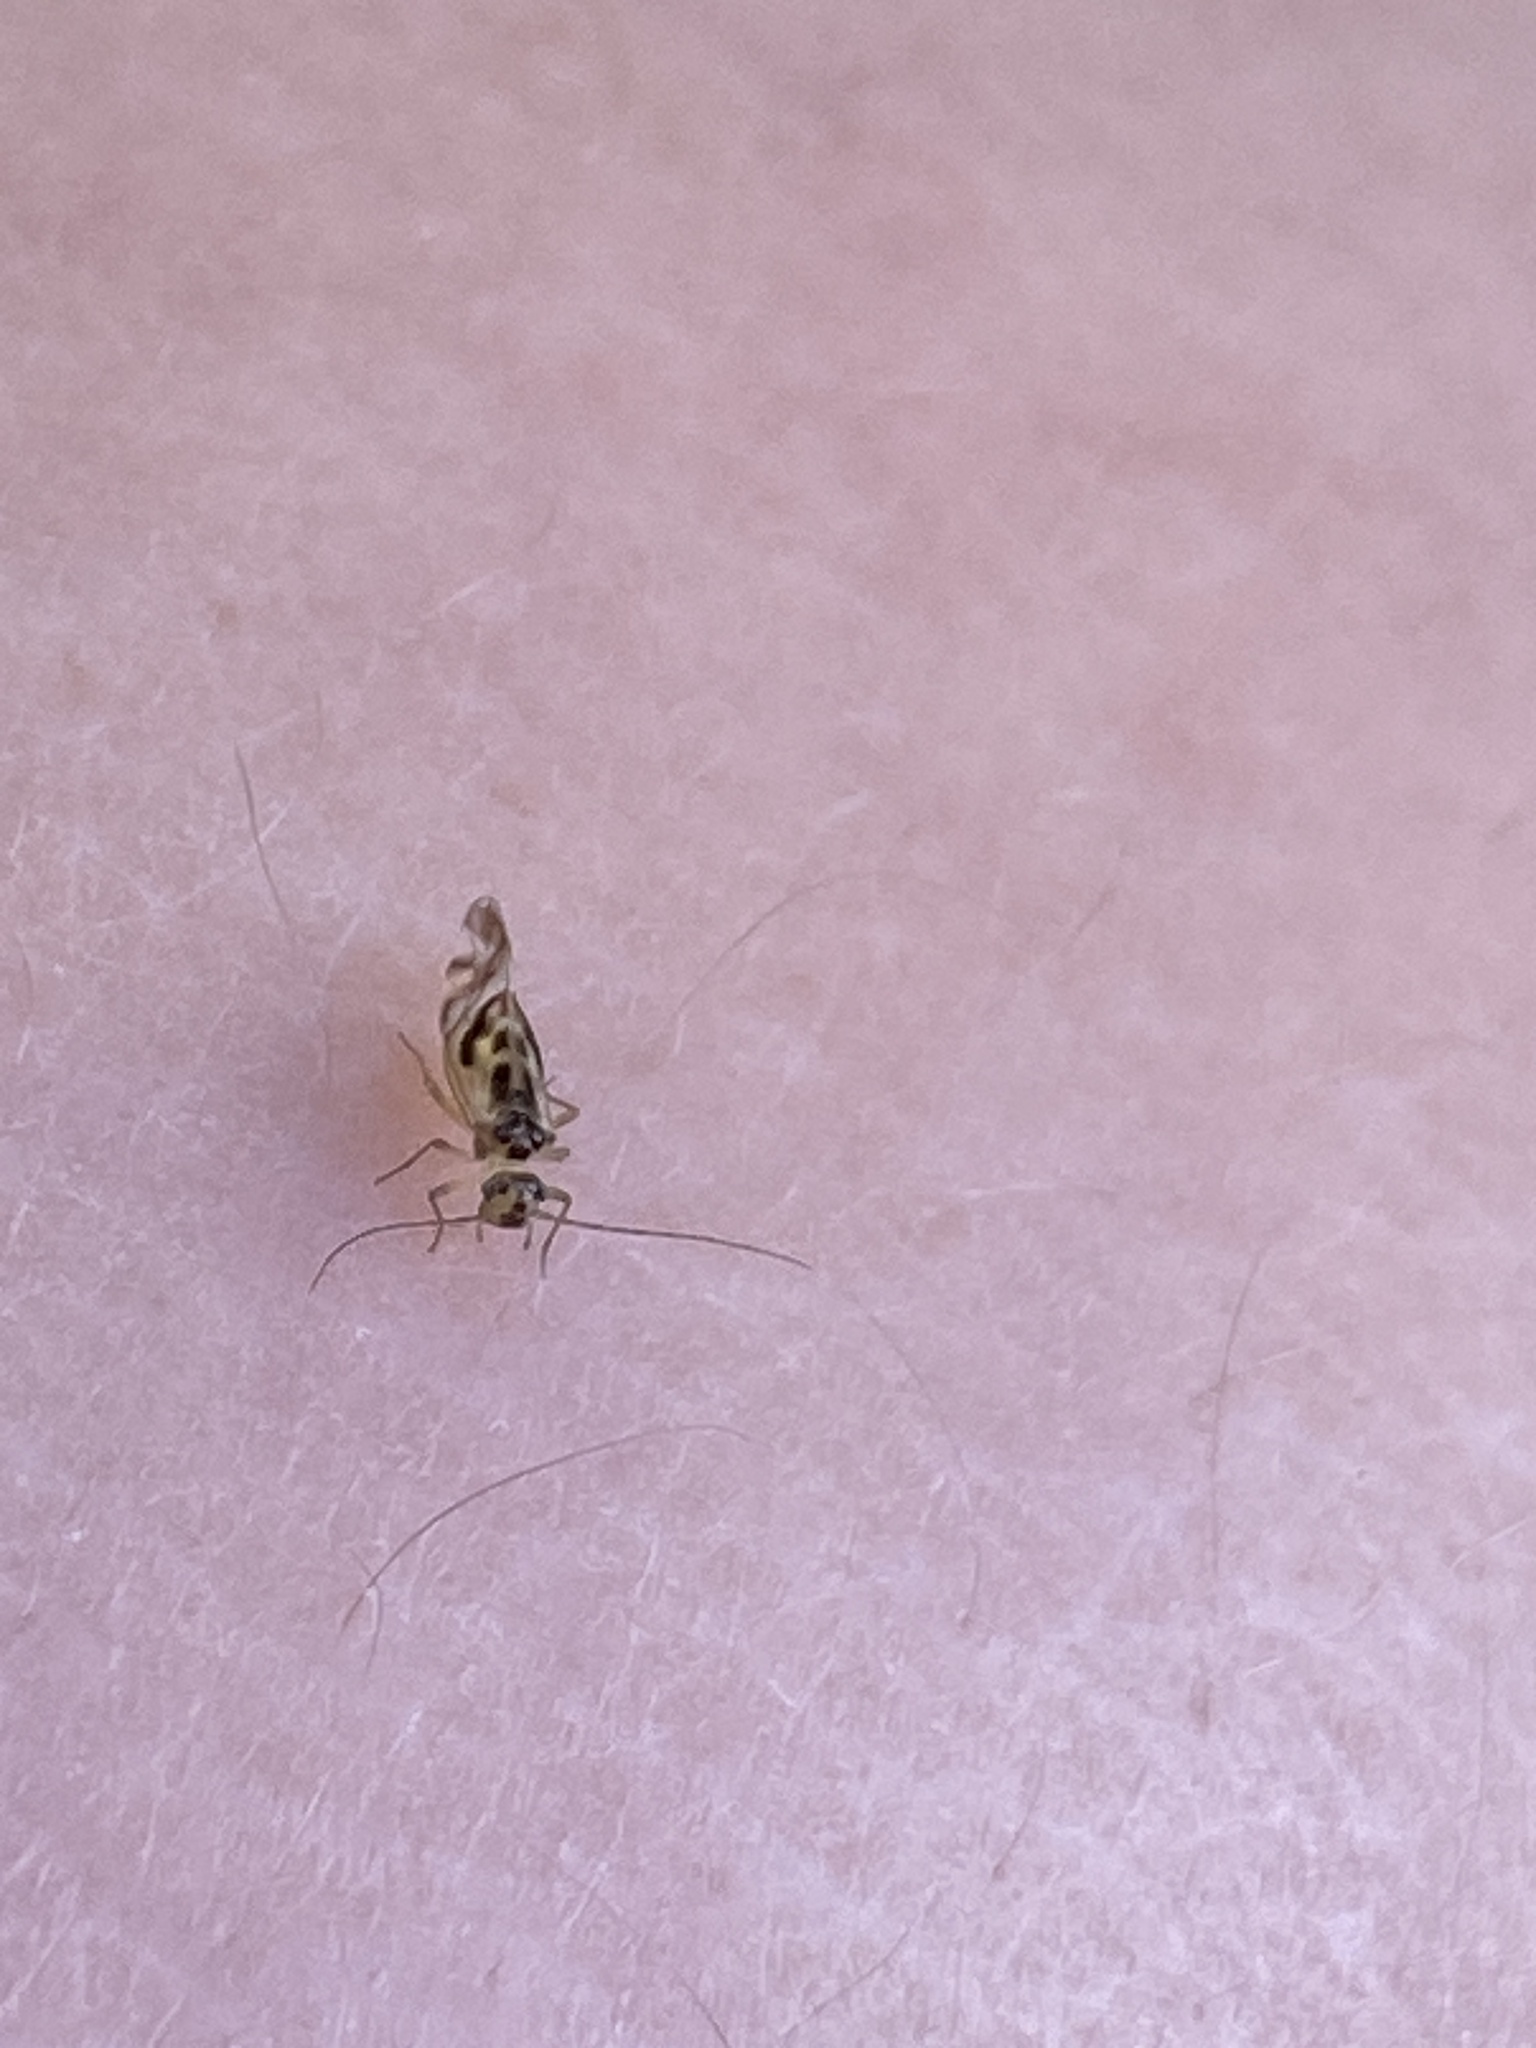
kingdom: Animalia
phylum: Arthropoda
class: Insecta
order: Psocodea
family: Stenopsocidae
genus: Graphopsocus
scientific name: Graphopsocus cruciatus
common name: Lizard bark louse
